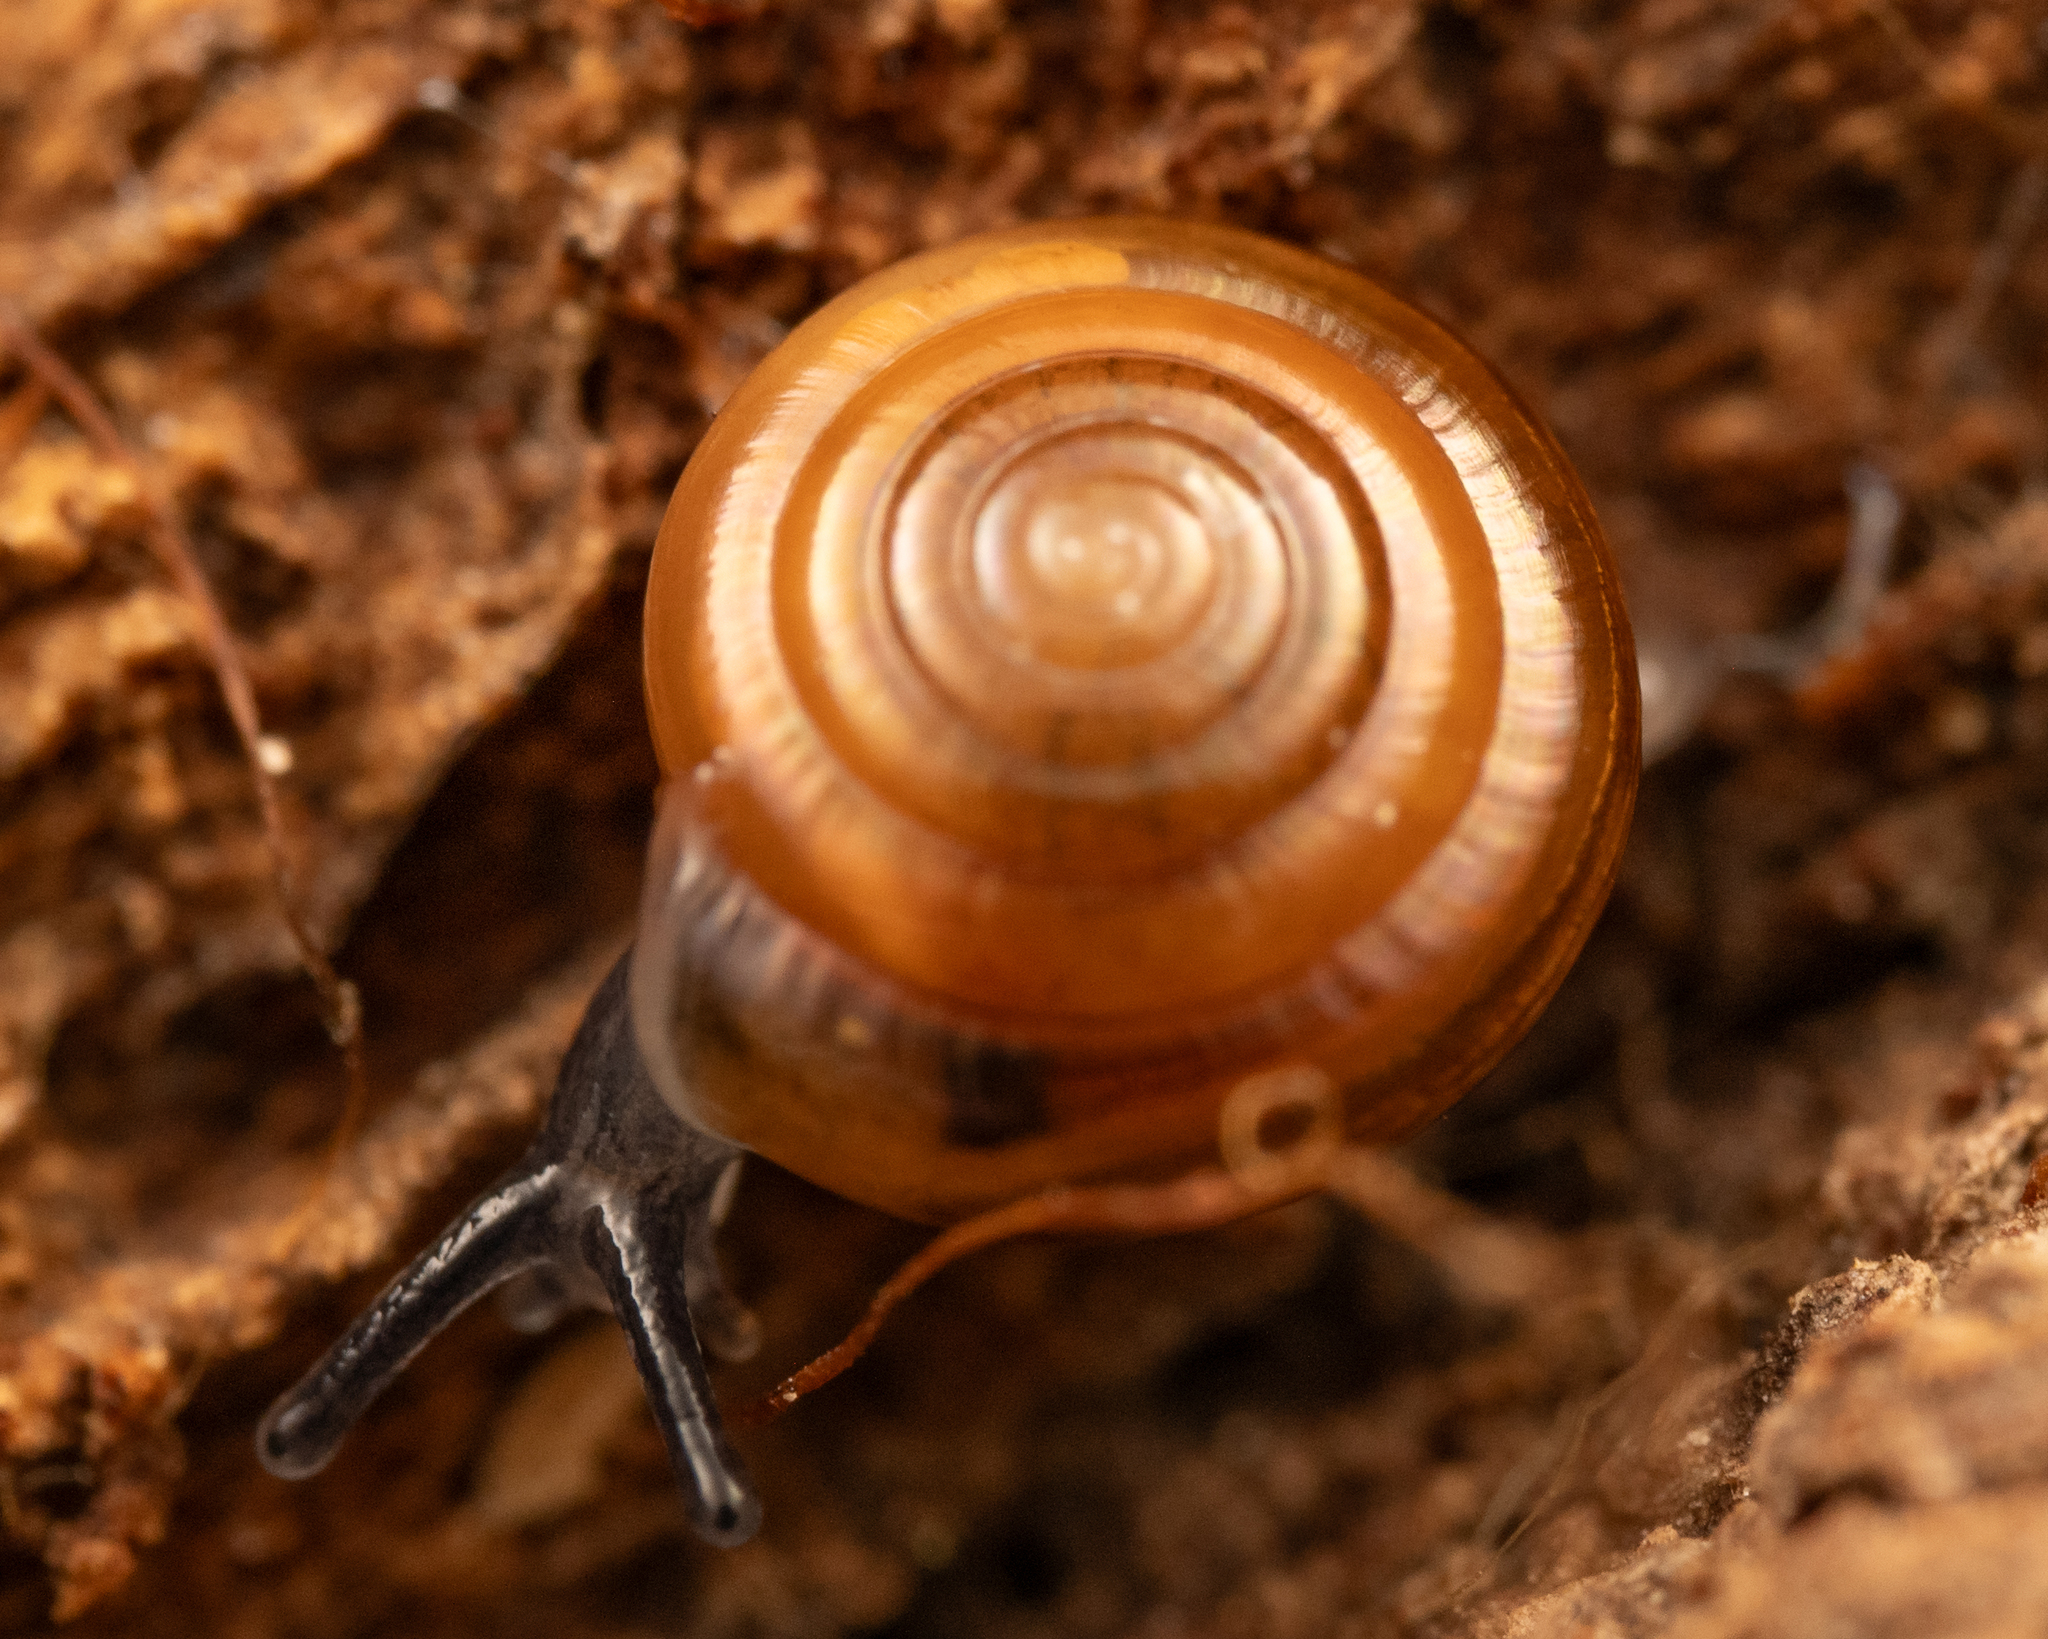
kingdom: Animalia
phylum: Mollusca
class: Gastropoda
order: Stylommatophora
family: Pristilomatidae
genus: Pristiloma
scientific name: Pristiloma idahoense
